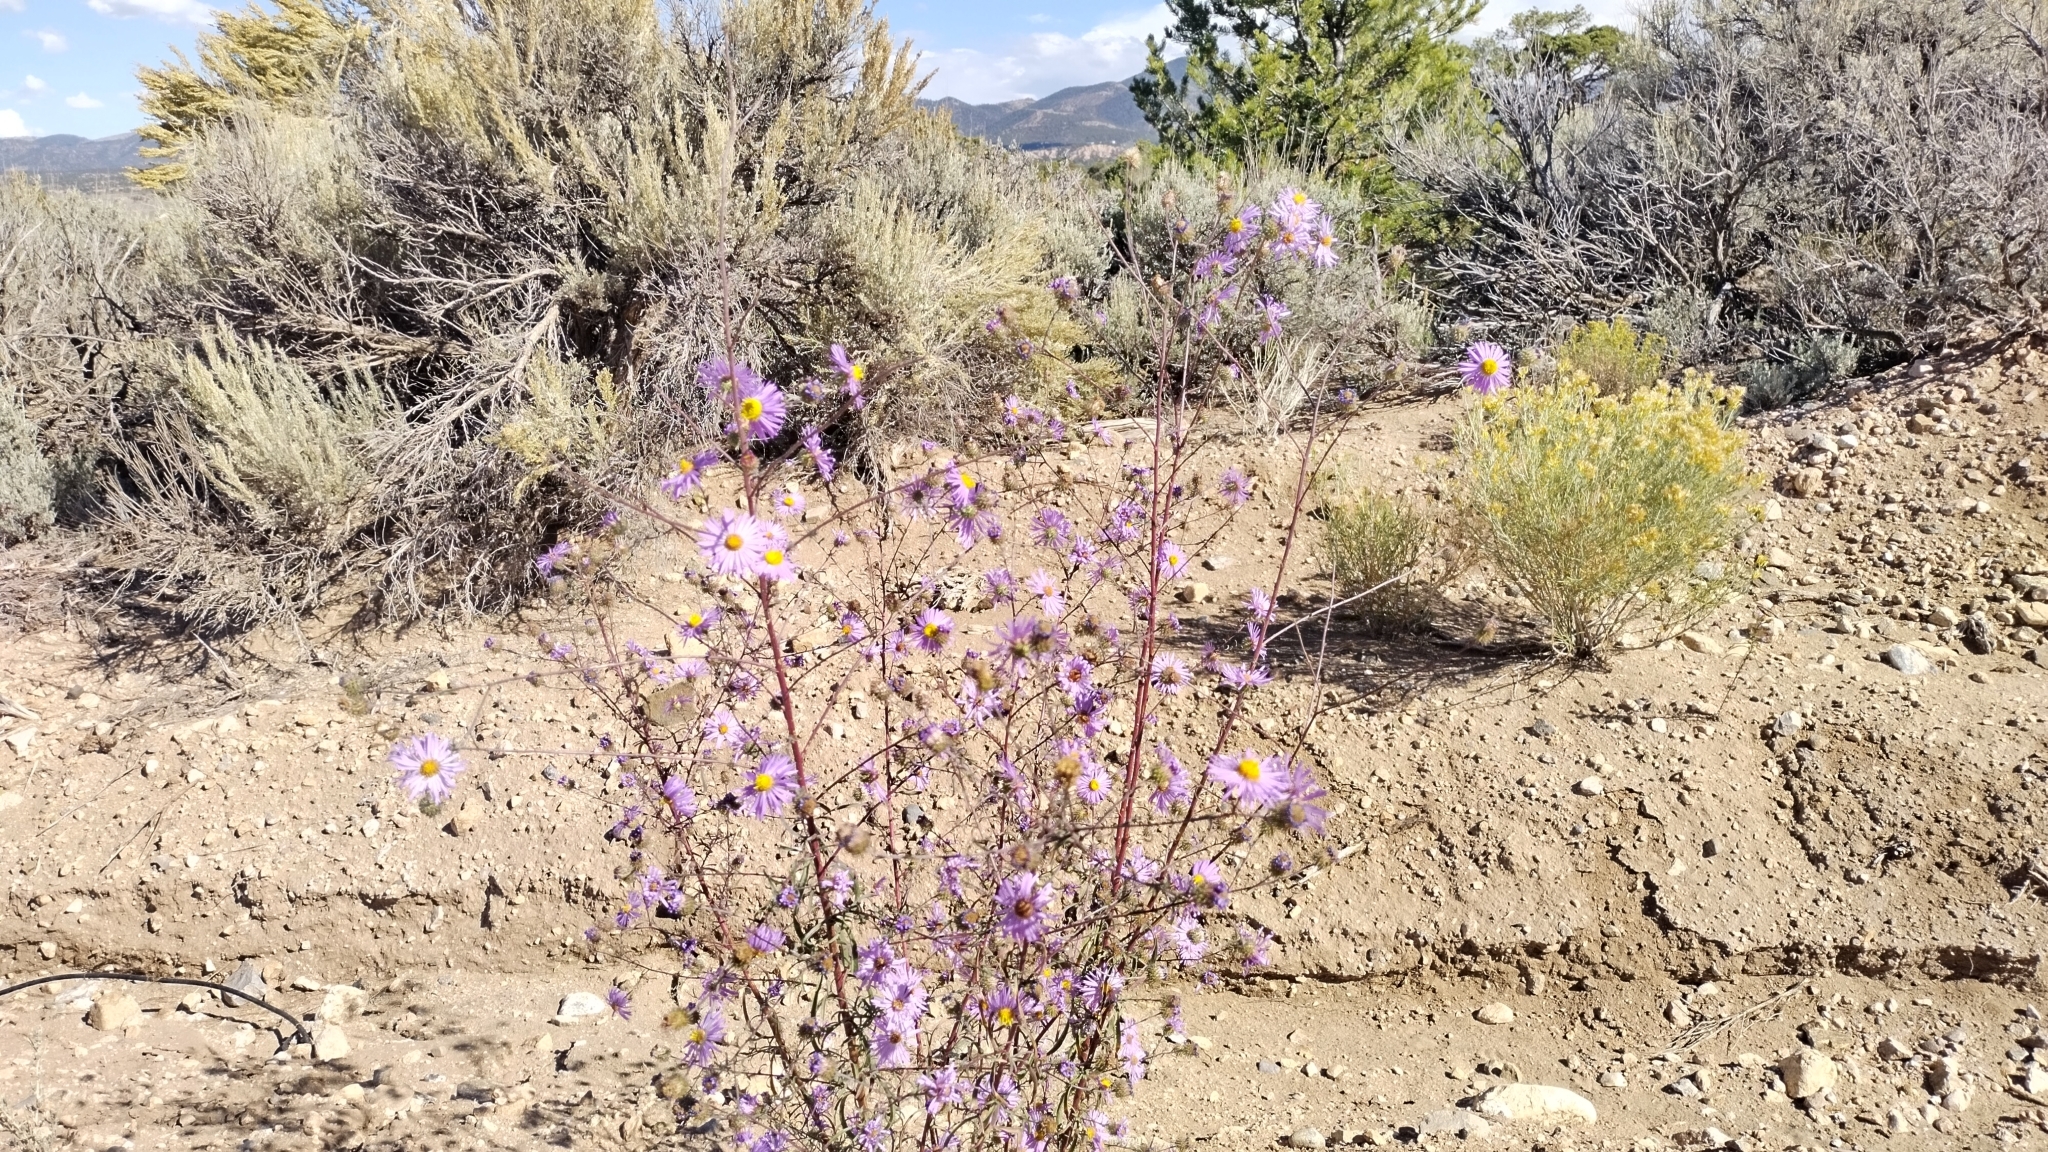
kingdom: Plantae
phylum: Tracheophyta
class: Magnoliopsida
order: Asterales
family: Asteraceae
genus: Dieteria
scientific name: Dieteria canescens
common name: Hoary-aster
